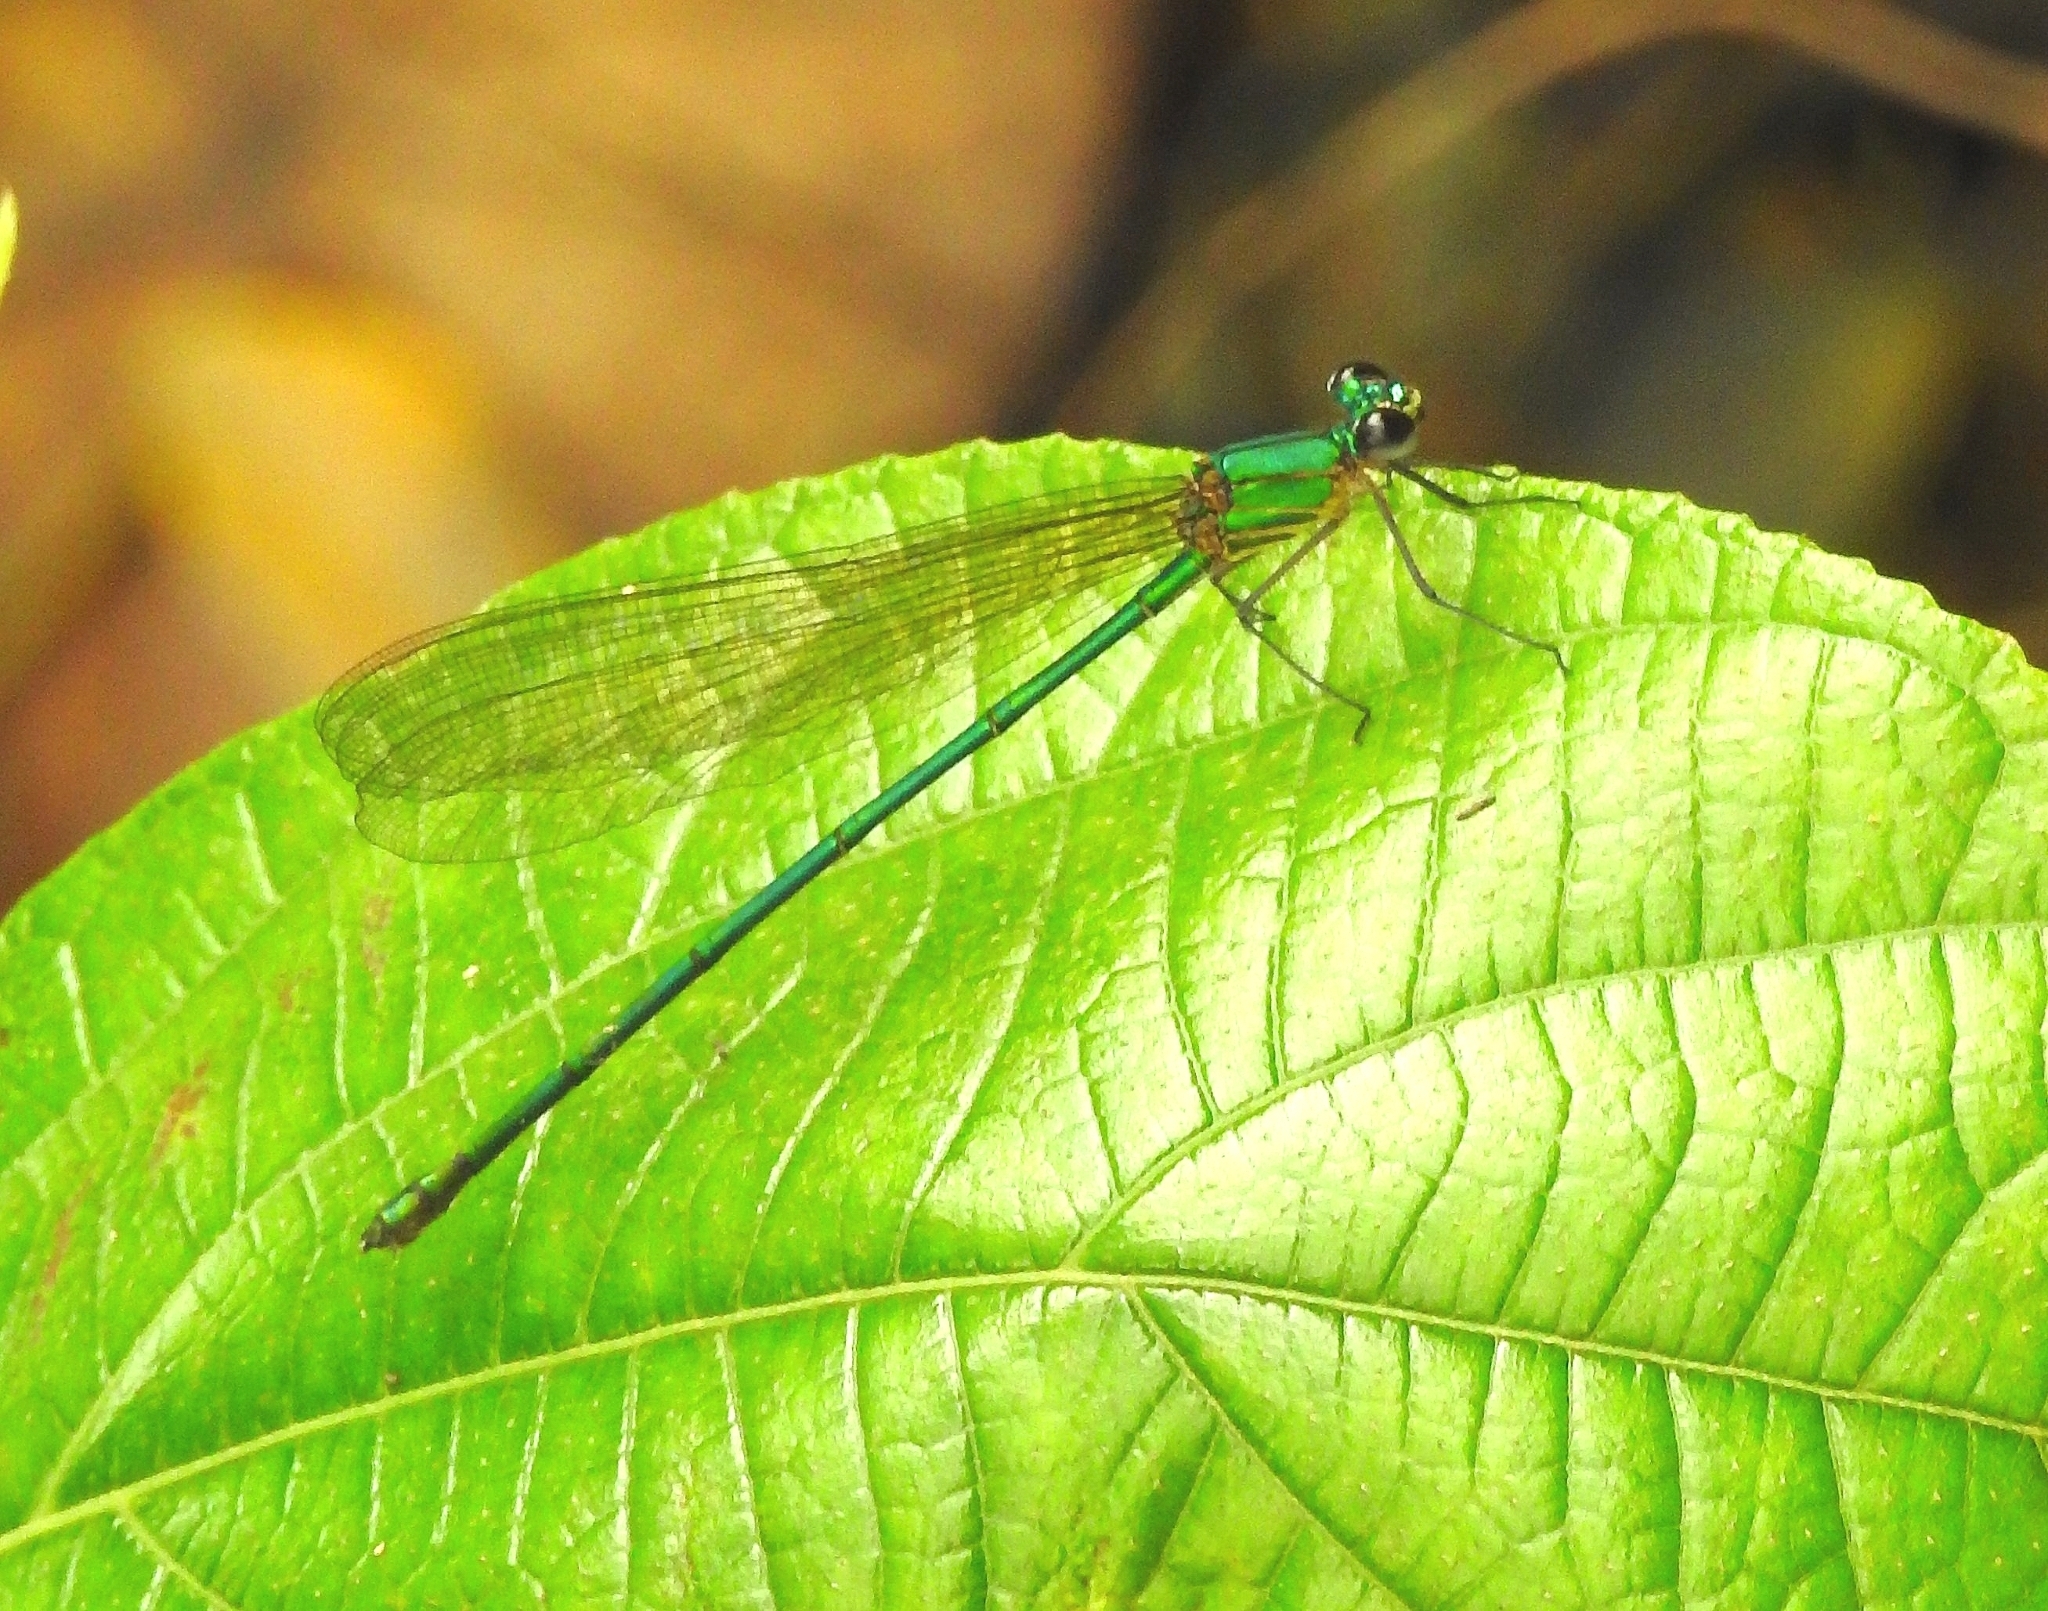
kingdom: Animalia
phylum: Arthropoda
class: Insecta
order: Odonata
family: Calopterygidae
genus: Vestalis
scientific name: Vestalis gracilis
